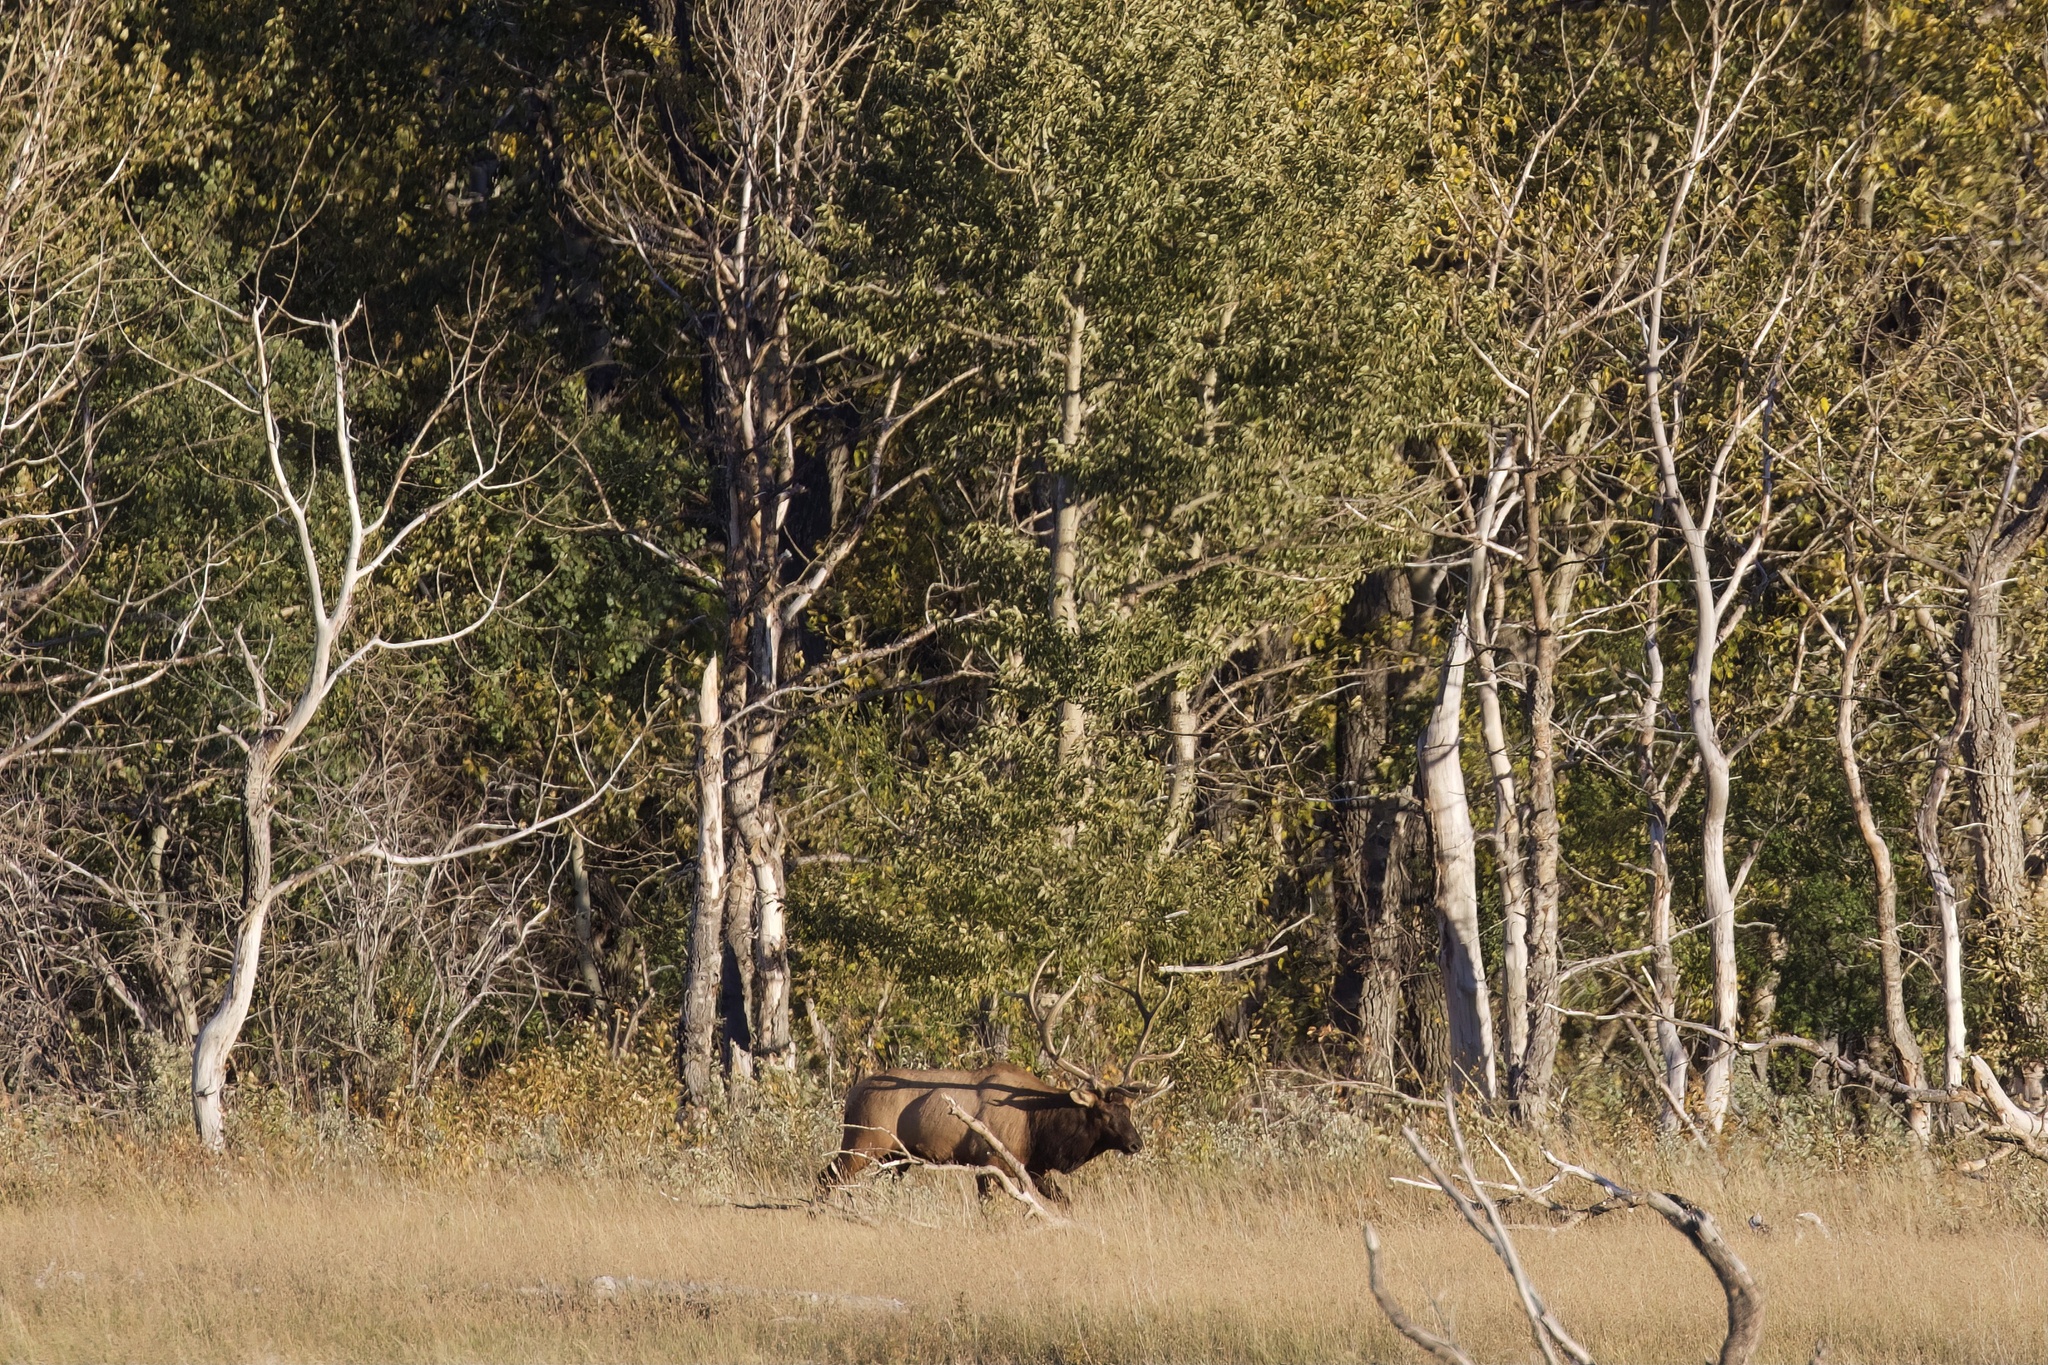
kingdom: Animalia
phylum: Chordata
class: Mammalia
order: Artiodactyla
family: Cervidae
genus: Cervus
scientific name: Cervus elaphus
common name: Red deer
